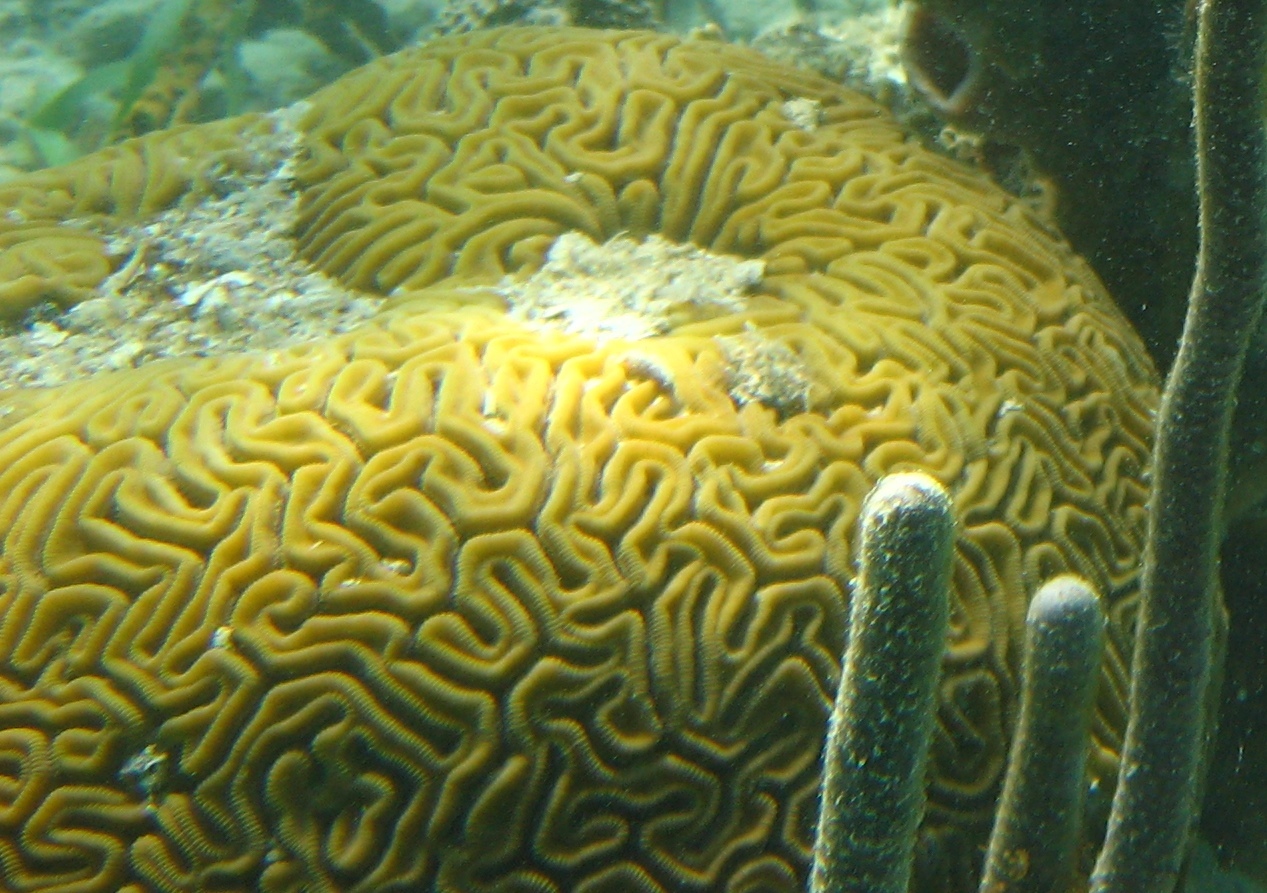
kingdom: Animalia
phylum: Cnidaria
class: Anthozoa
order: Scleractinia
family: Faviidae
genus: Diploria
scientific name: Diploria labyrinthiformis
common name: Grooved brain coral
